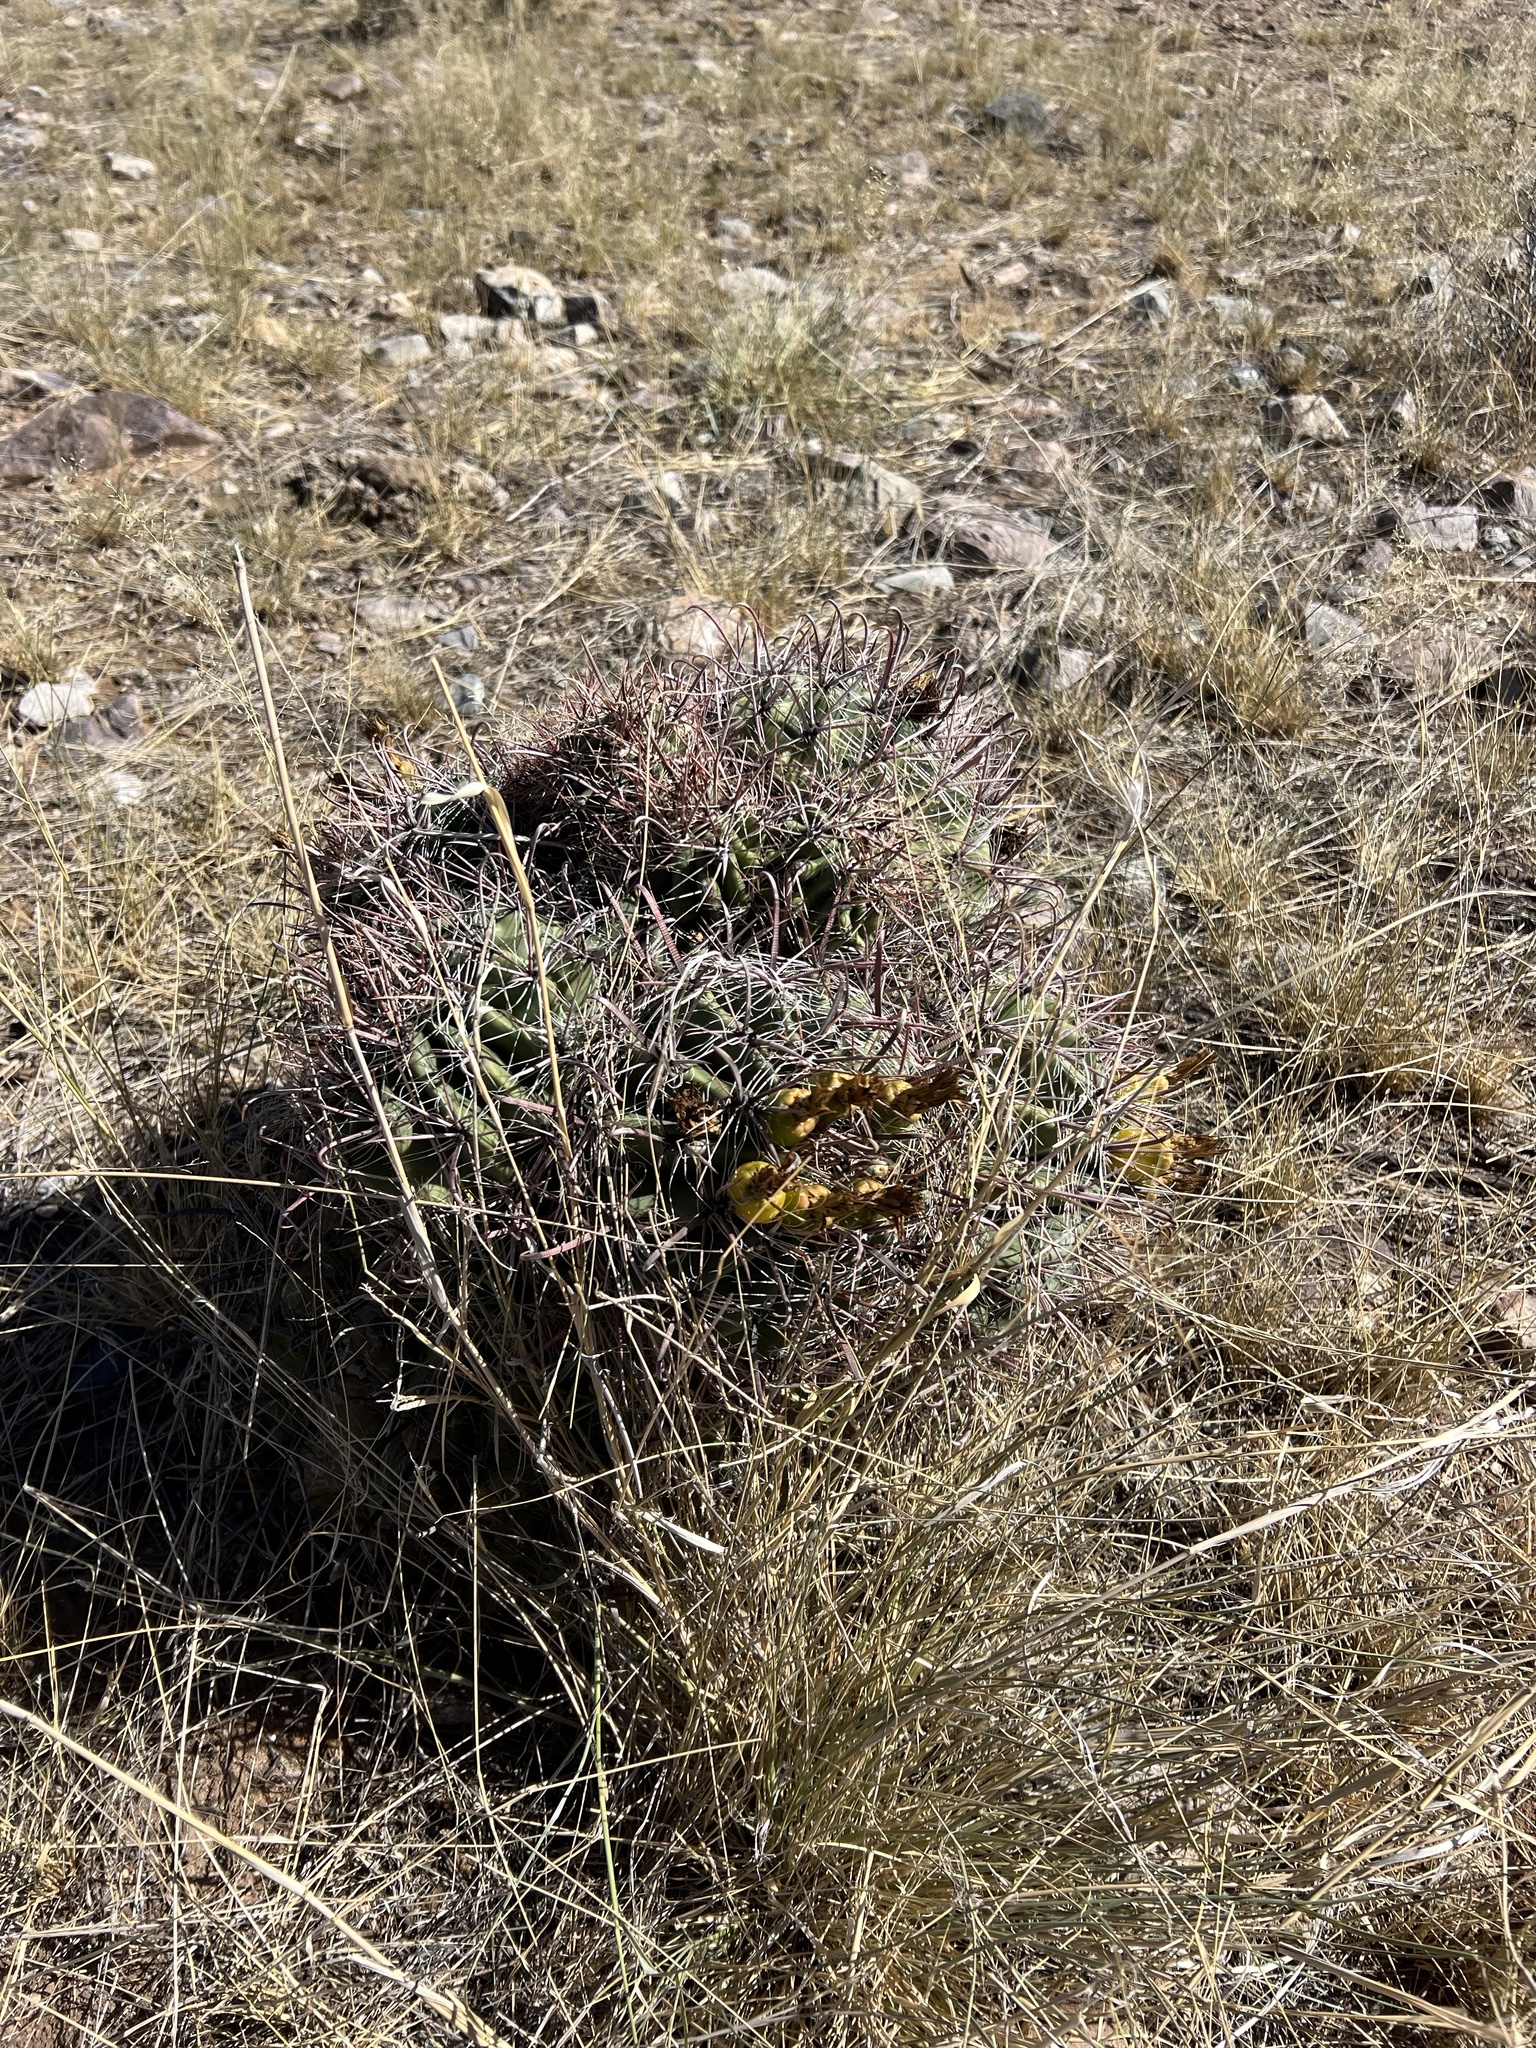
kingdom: Plantae
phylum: Tracheophyta
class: Magnoliopsida
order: Caryophyllales
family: Cactaceae
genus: Ferocactus
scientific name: Ferocactus wislizeni
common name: Candy barrel cactus
